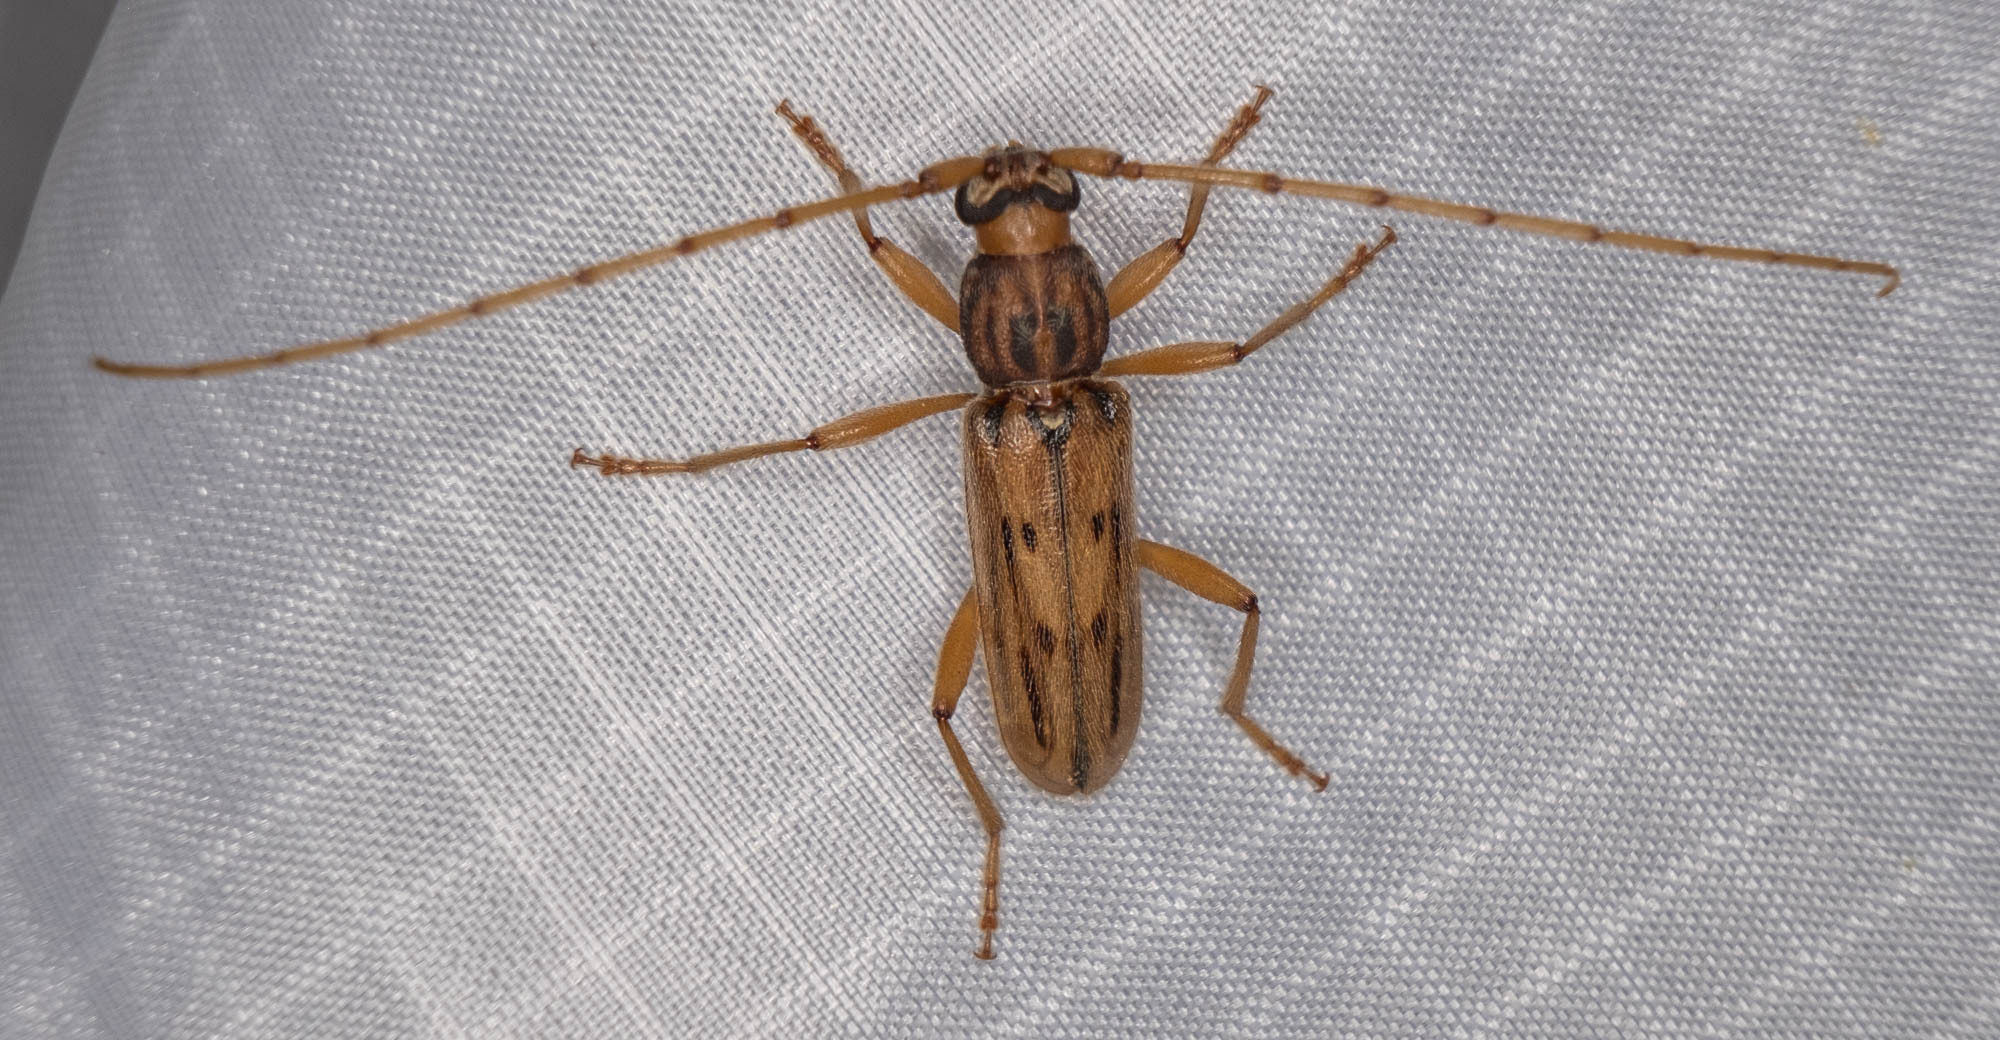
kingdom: Animalia
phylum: Arthropoda
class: Insecta
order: Coleoptera
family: Cerambycidae
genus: Achryson
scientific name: Achryson lineolatum
